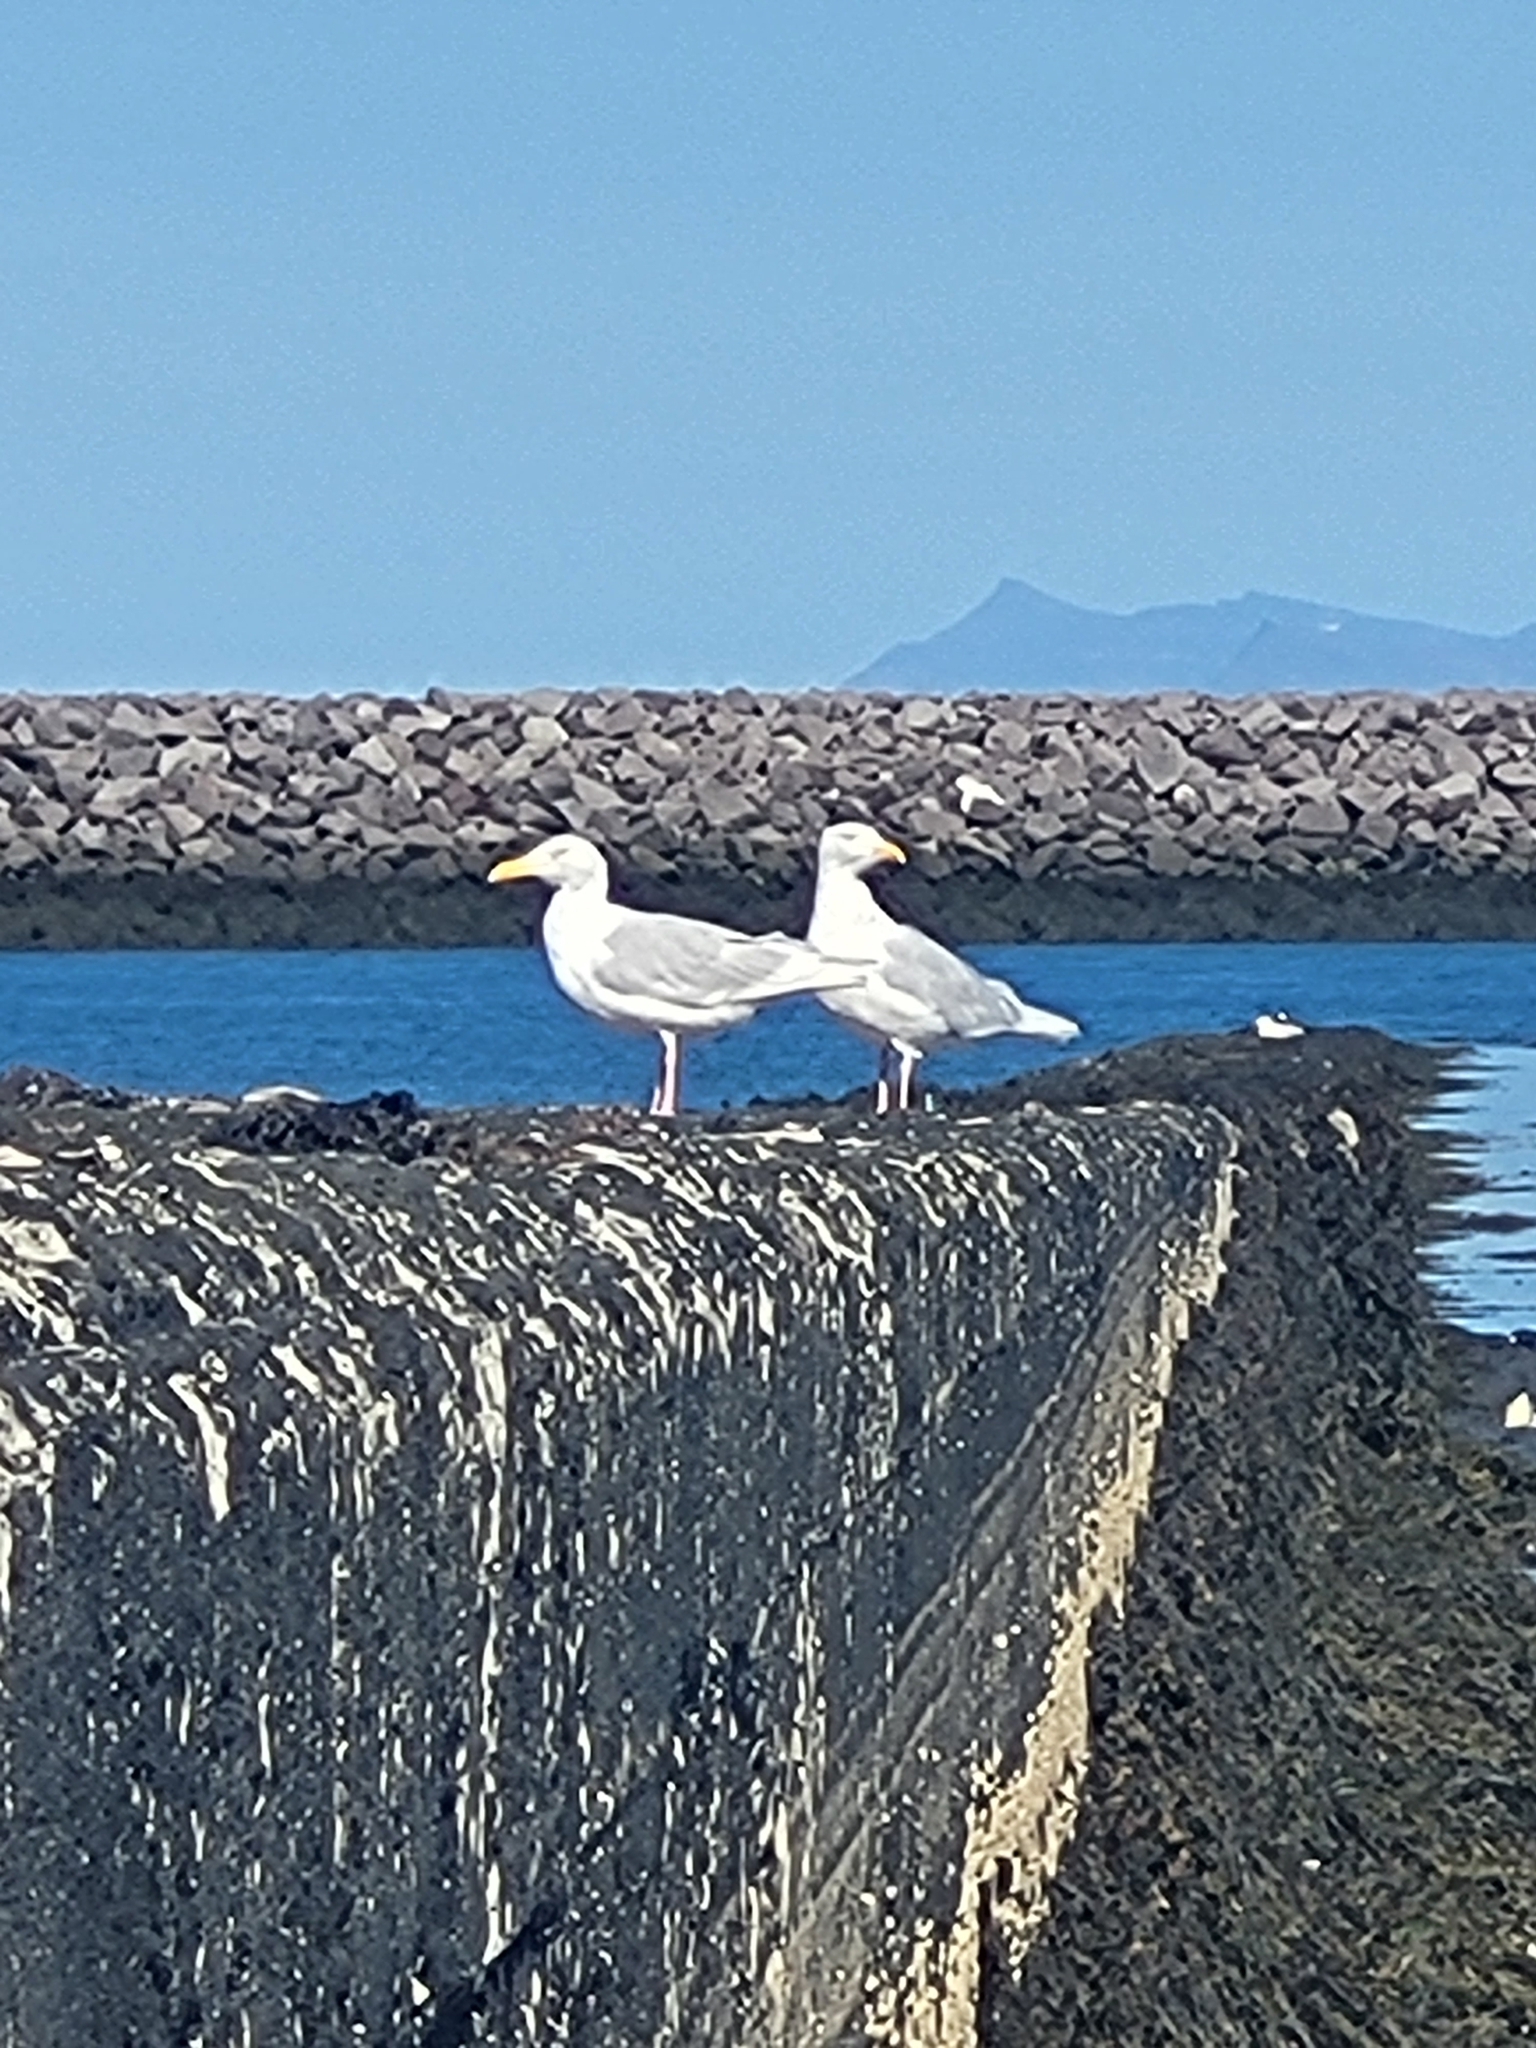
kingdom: Animalia
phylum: Chordata
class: Aves
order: Charadriiformes
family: Laridae
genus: Larus
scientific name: Larus hyperboreus
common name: Glaucous gull
